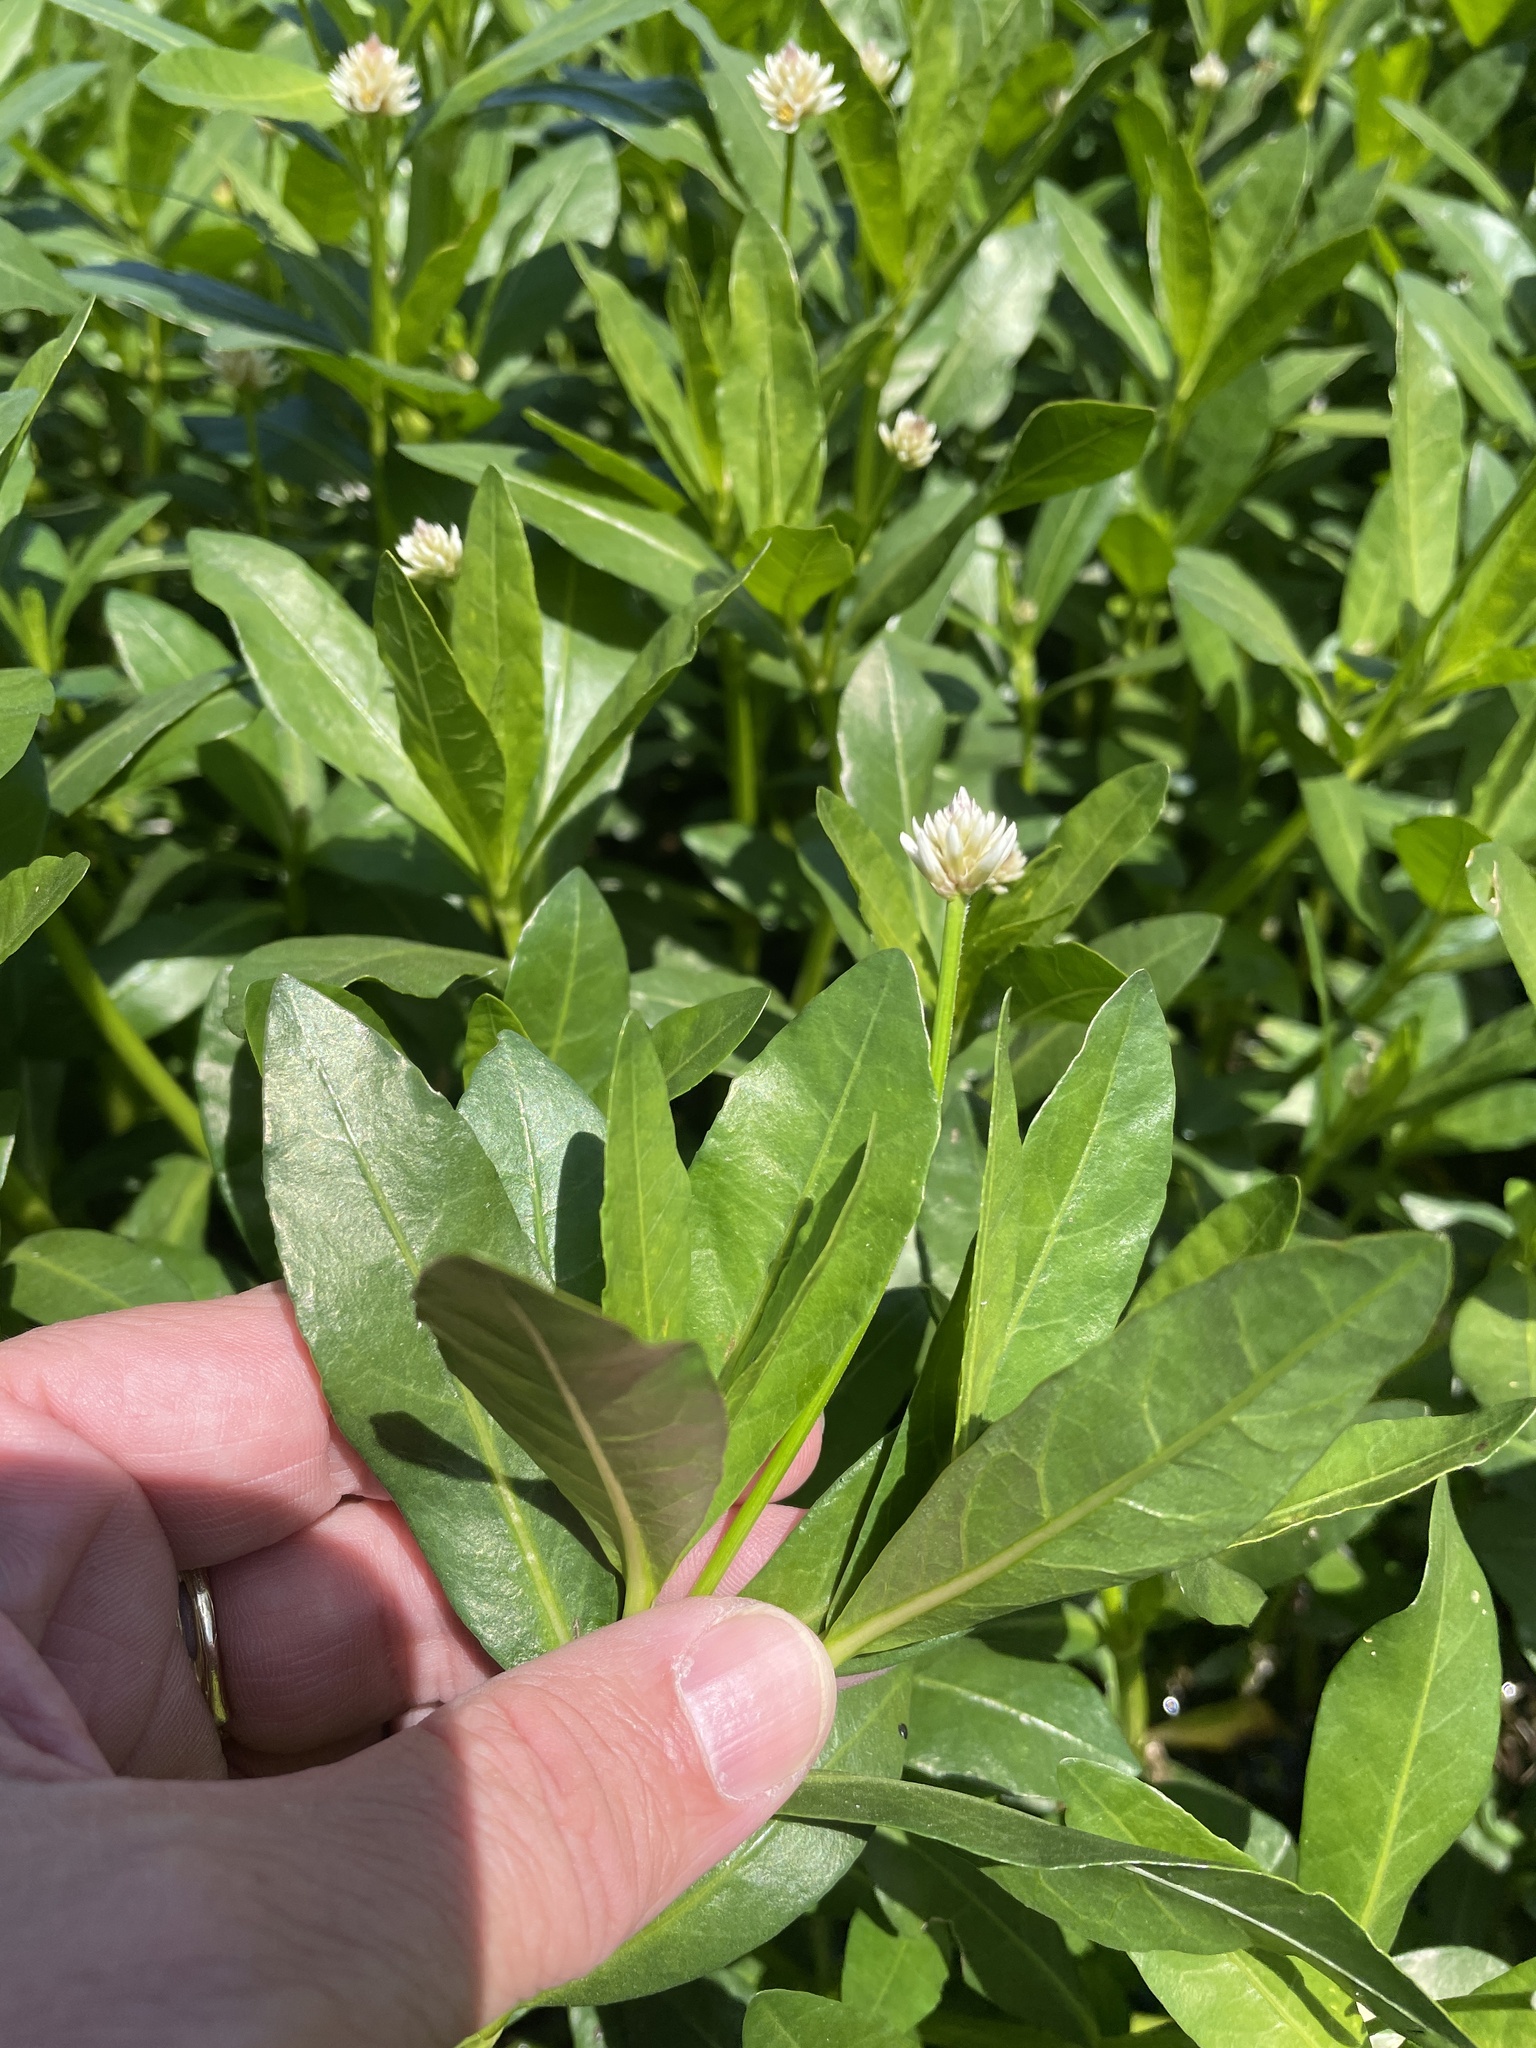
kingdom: Plantae
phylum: Tracheophyta
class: Magnoliopsida
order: Caryophyllales
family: Amaranthaceae
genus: Alternanthera
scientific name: Alternanthera philoxeroides
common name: Alligatorweed
